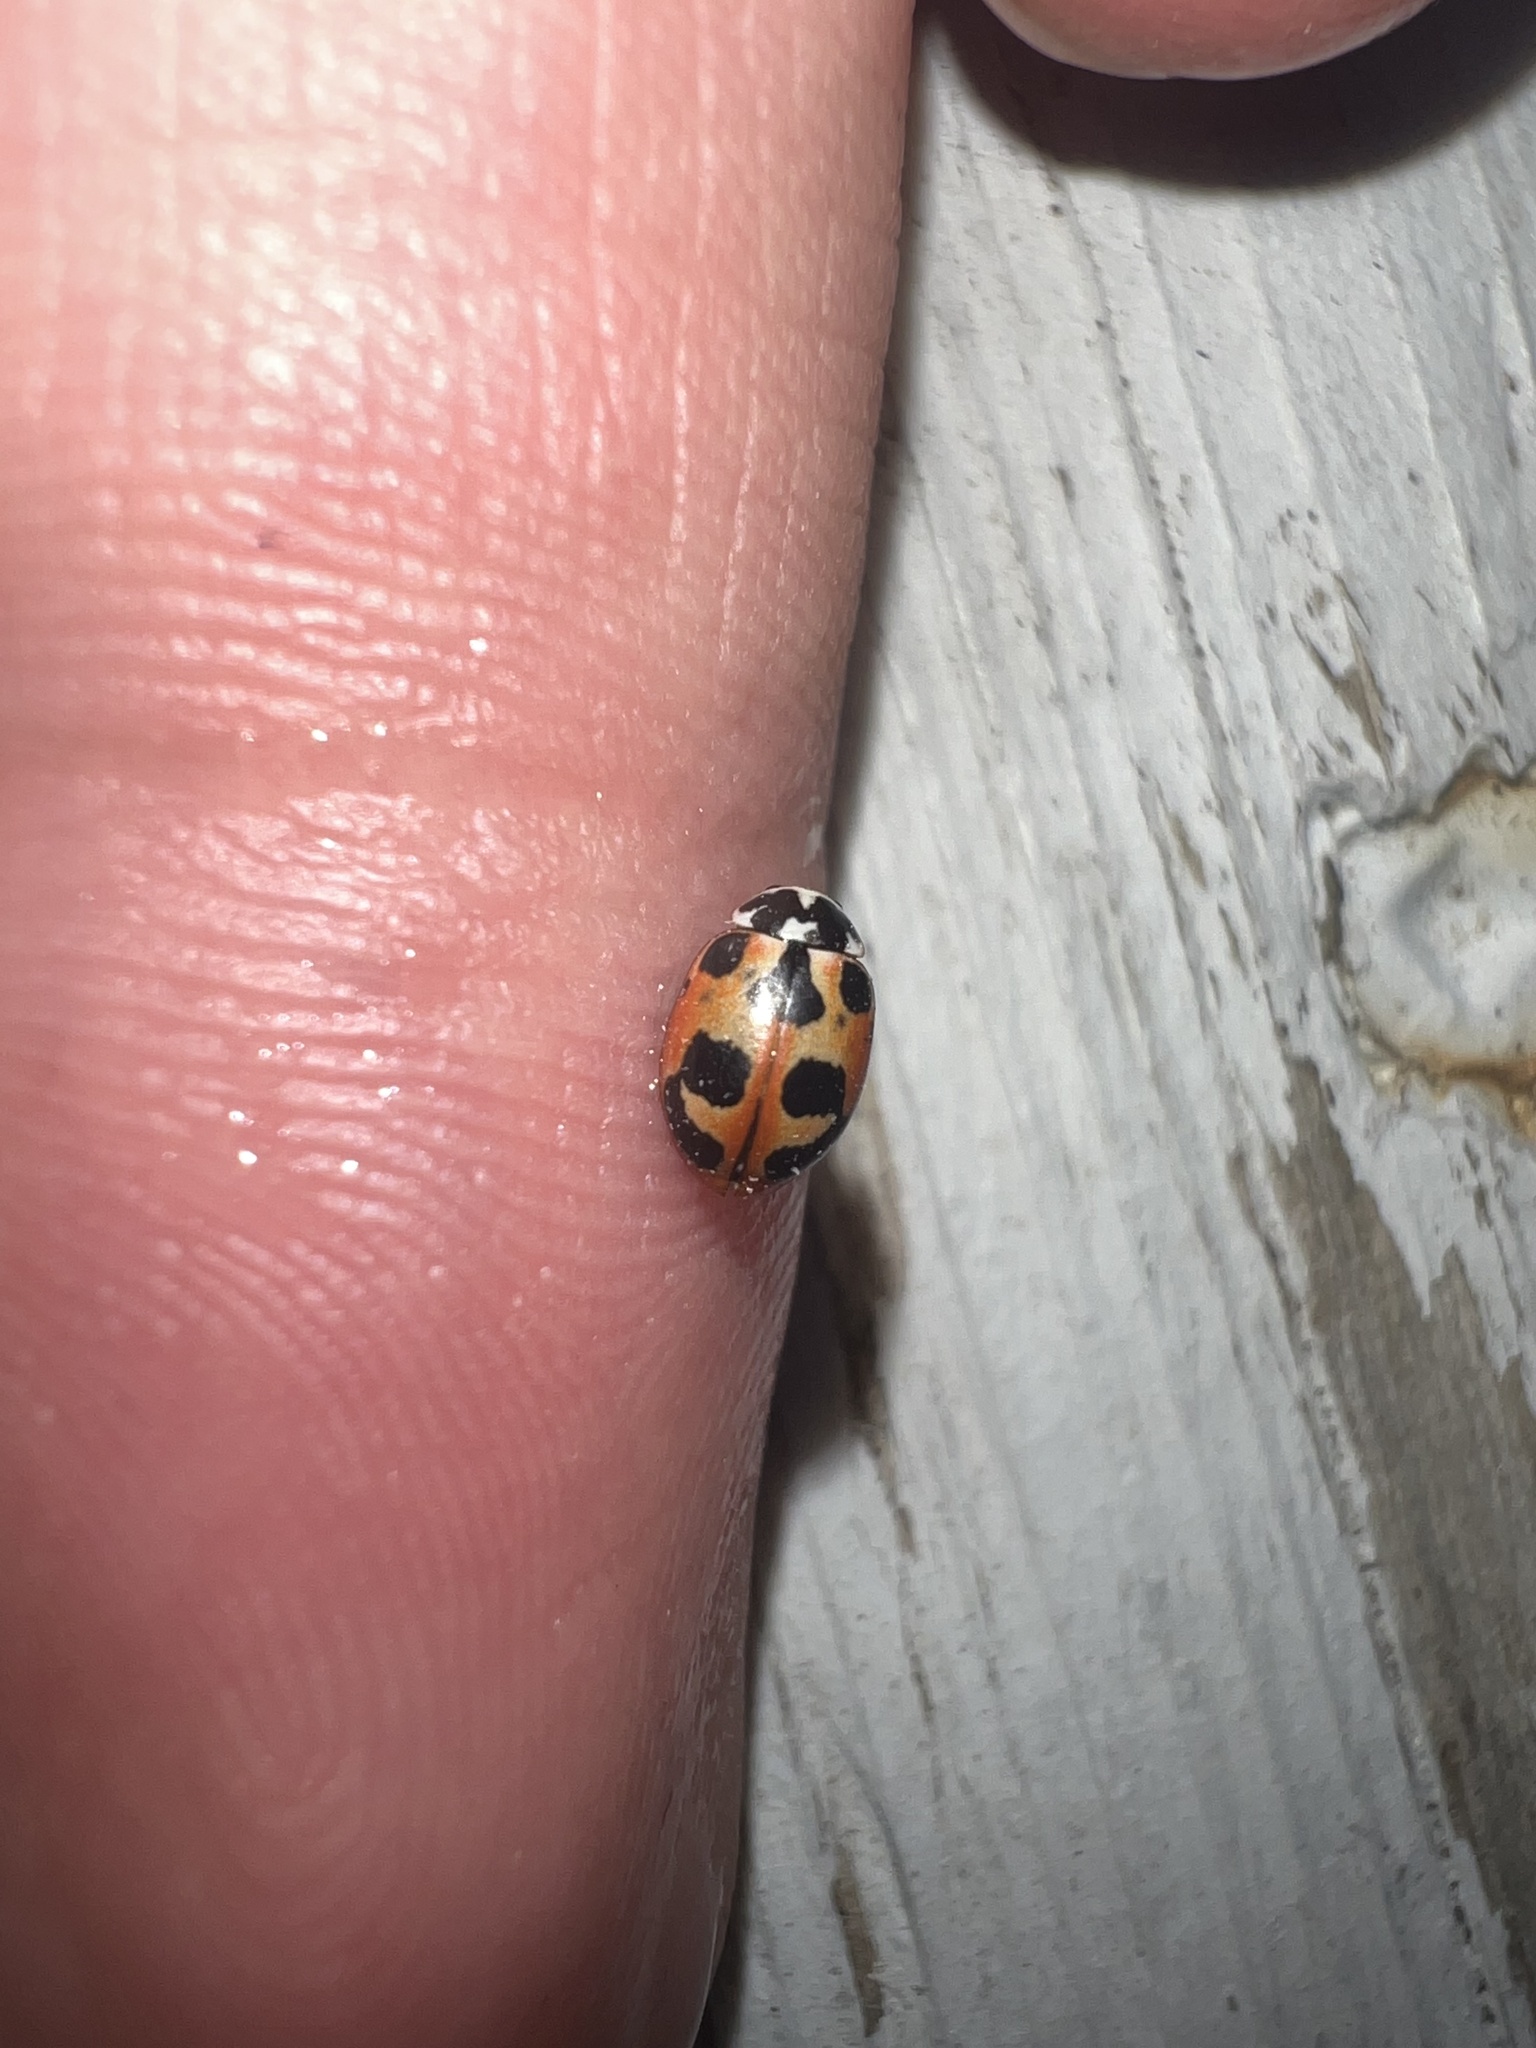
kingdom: Animalia
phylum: Arthropoda
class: Insecta
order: Coleoptera
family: Coccinellidae
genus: Hippodamia
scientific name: Hippodamia parenthesis
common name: Parenthesis lady beetle
